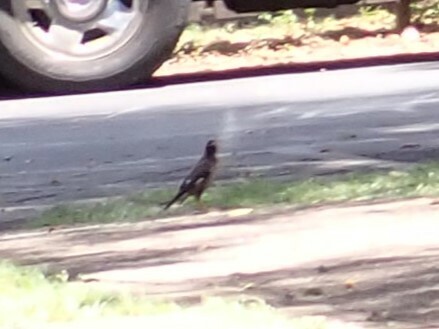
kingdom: Animalia
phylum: Chordata
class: Aves
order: Passeriformes
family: Sturnidae
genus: Acridotheres
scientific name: Acridotheres tristis
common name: Common myna
